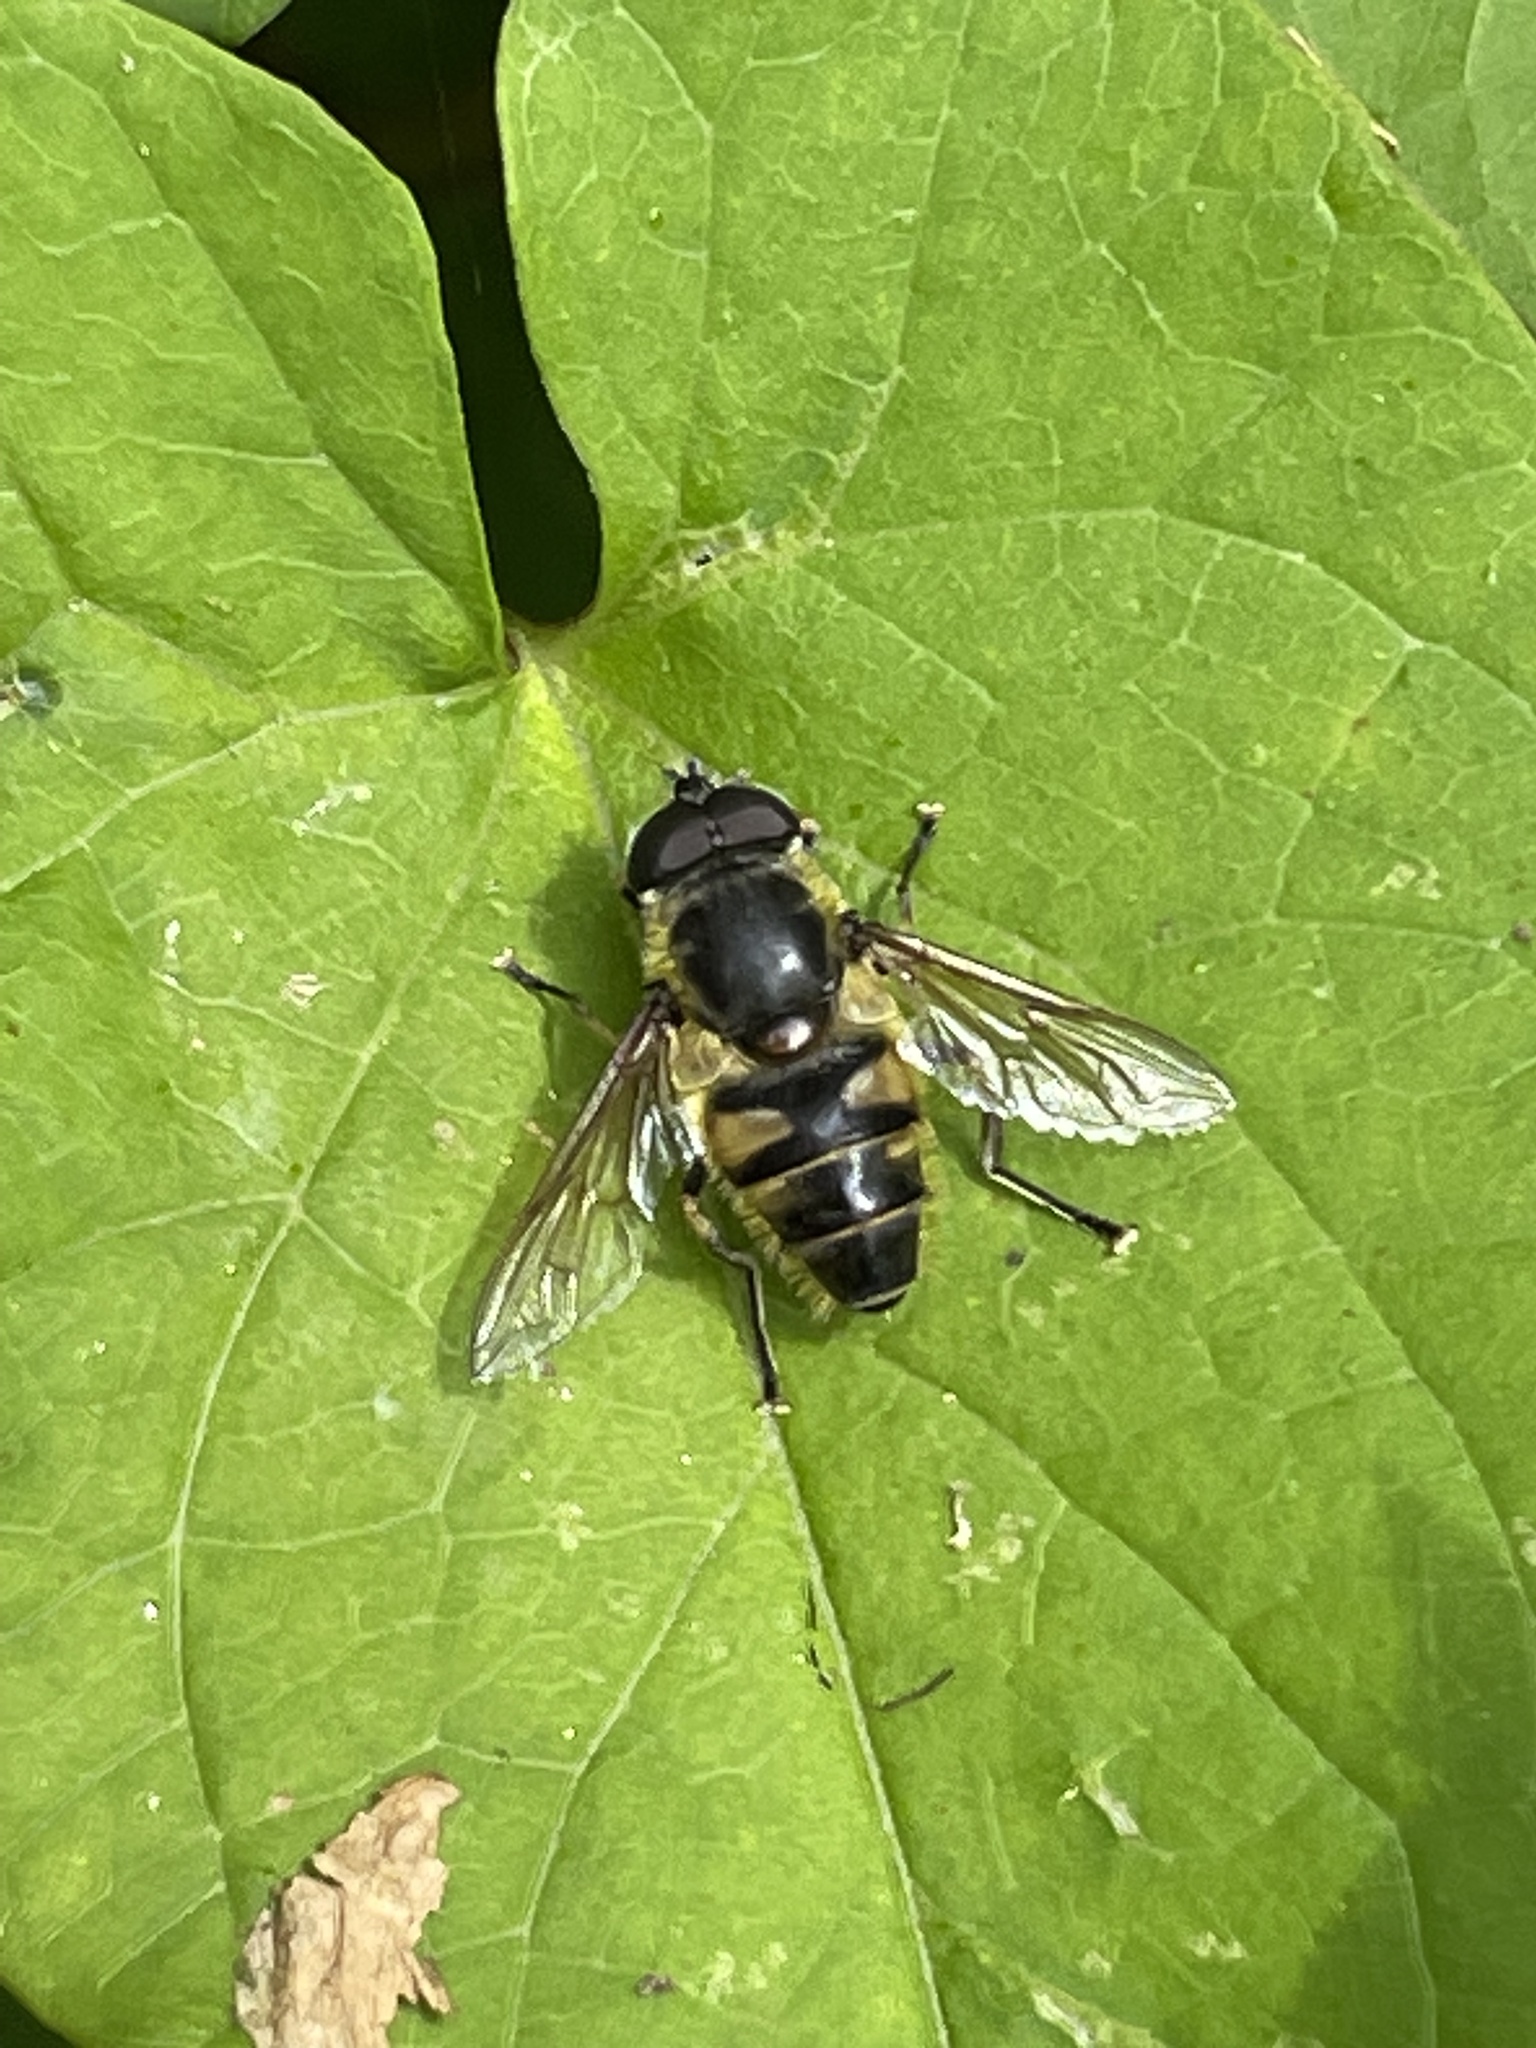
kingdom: Animalia
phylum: Arthropoda
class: Insecta
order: Diptera
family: Syrphidae
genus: Myathropa
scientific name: Myathropa florea
